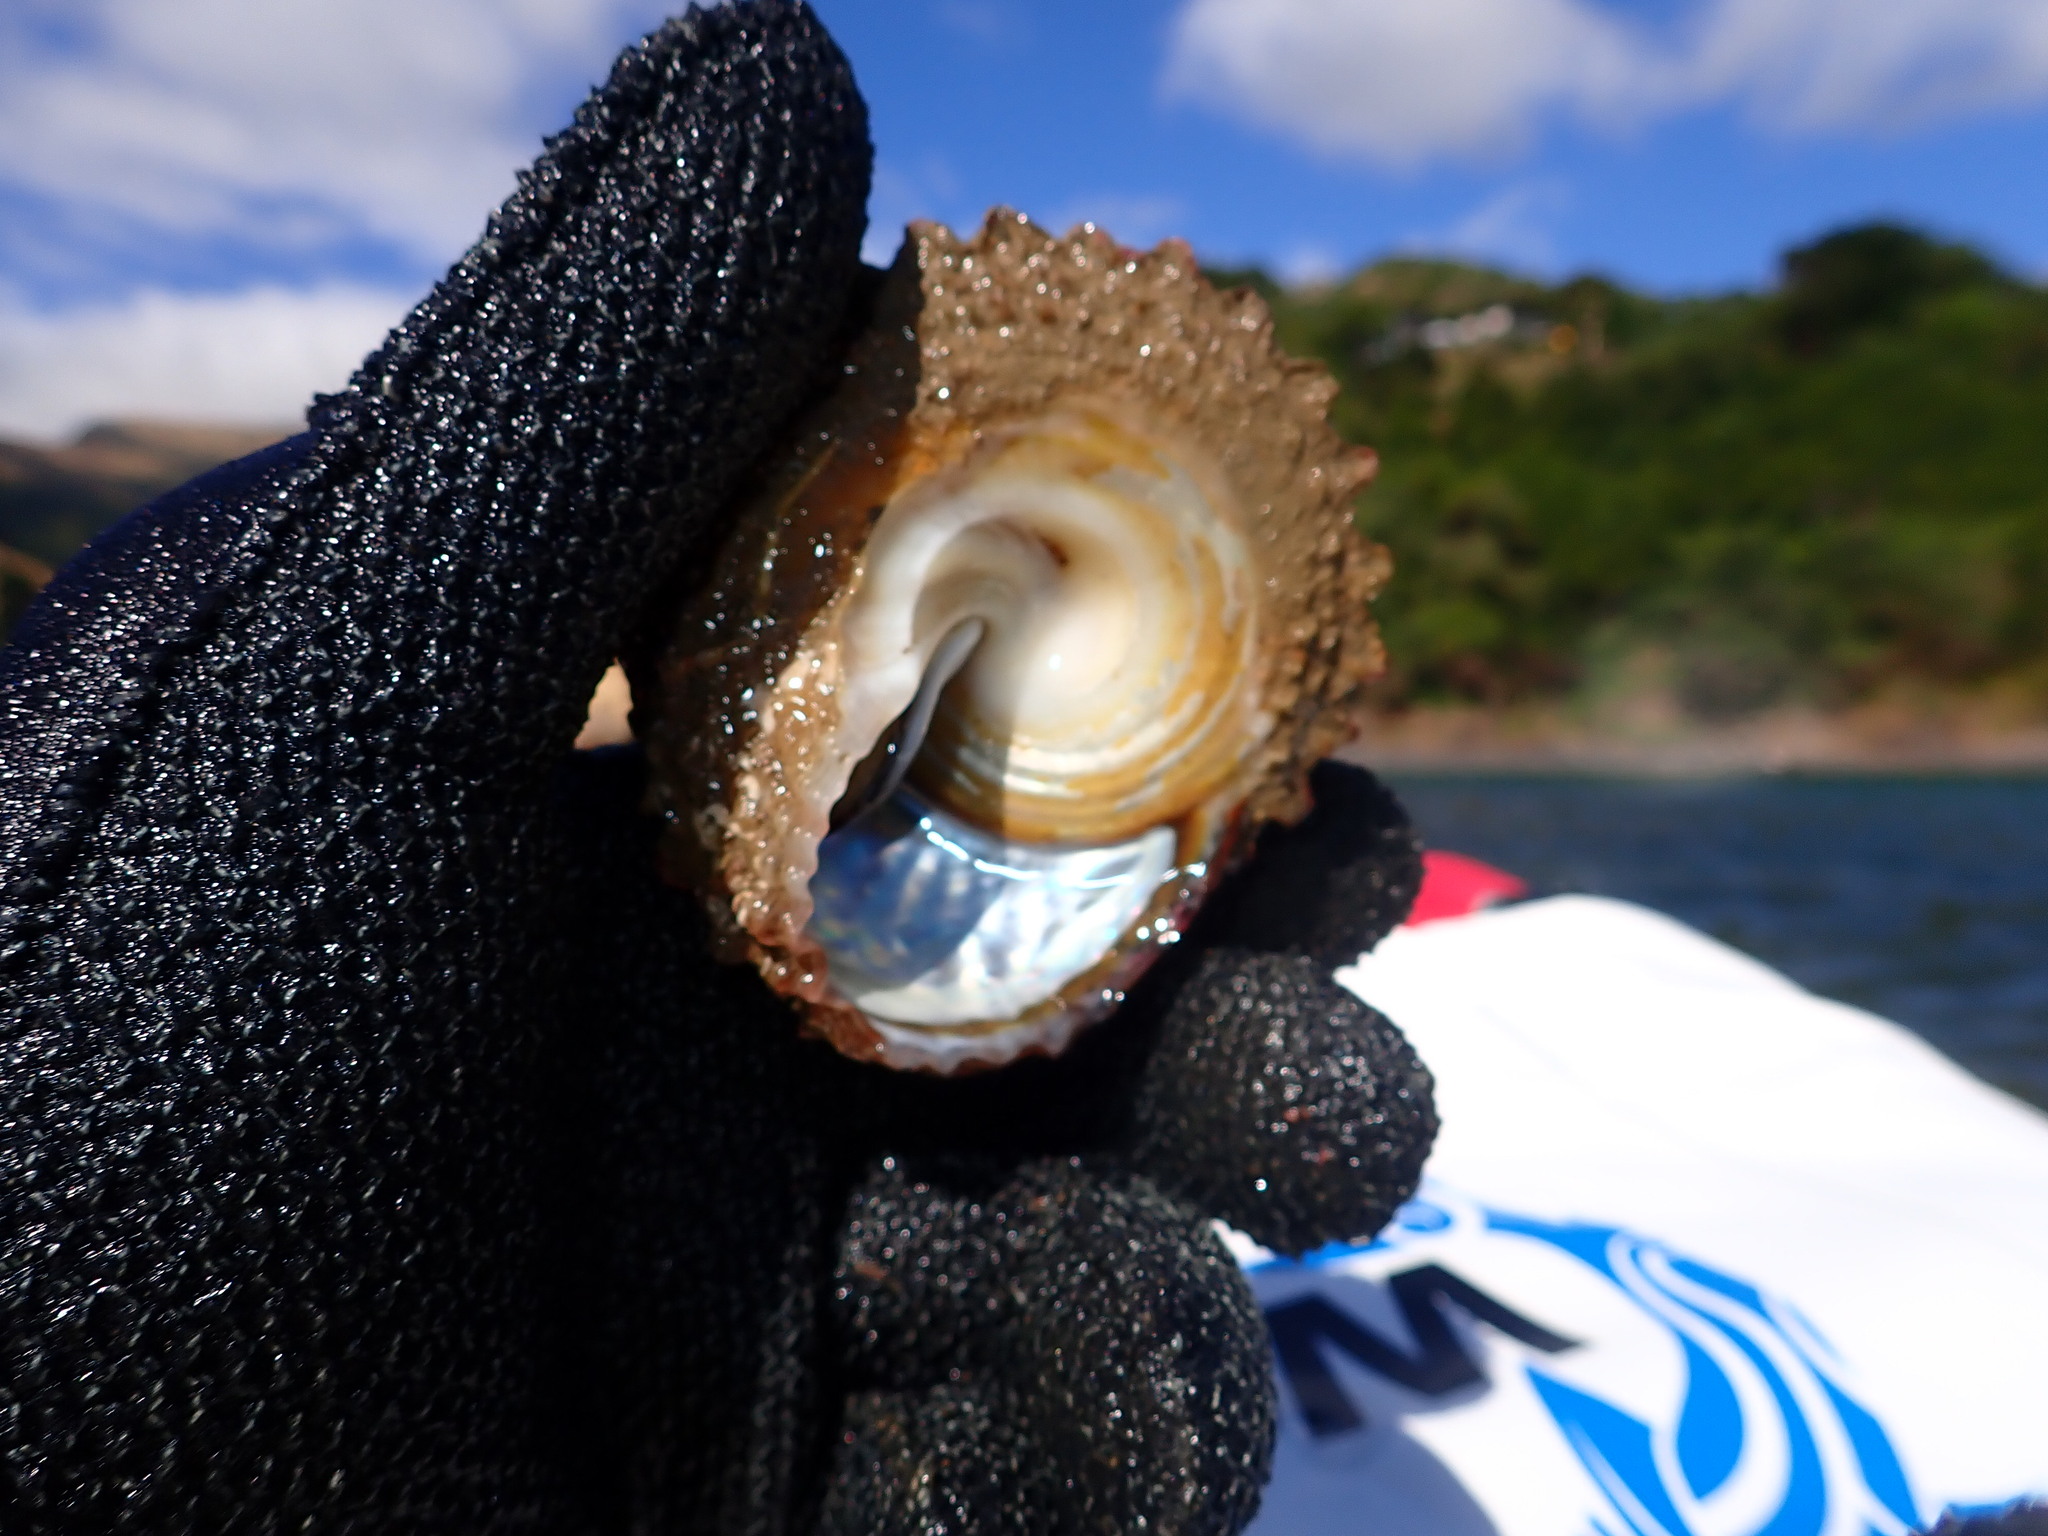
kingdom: Animalia
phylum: Mollusca
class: Gastropoda
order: Trochida
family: Turbinidae
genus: Cookia
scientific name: Cookia sulcata
